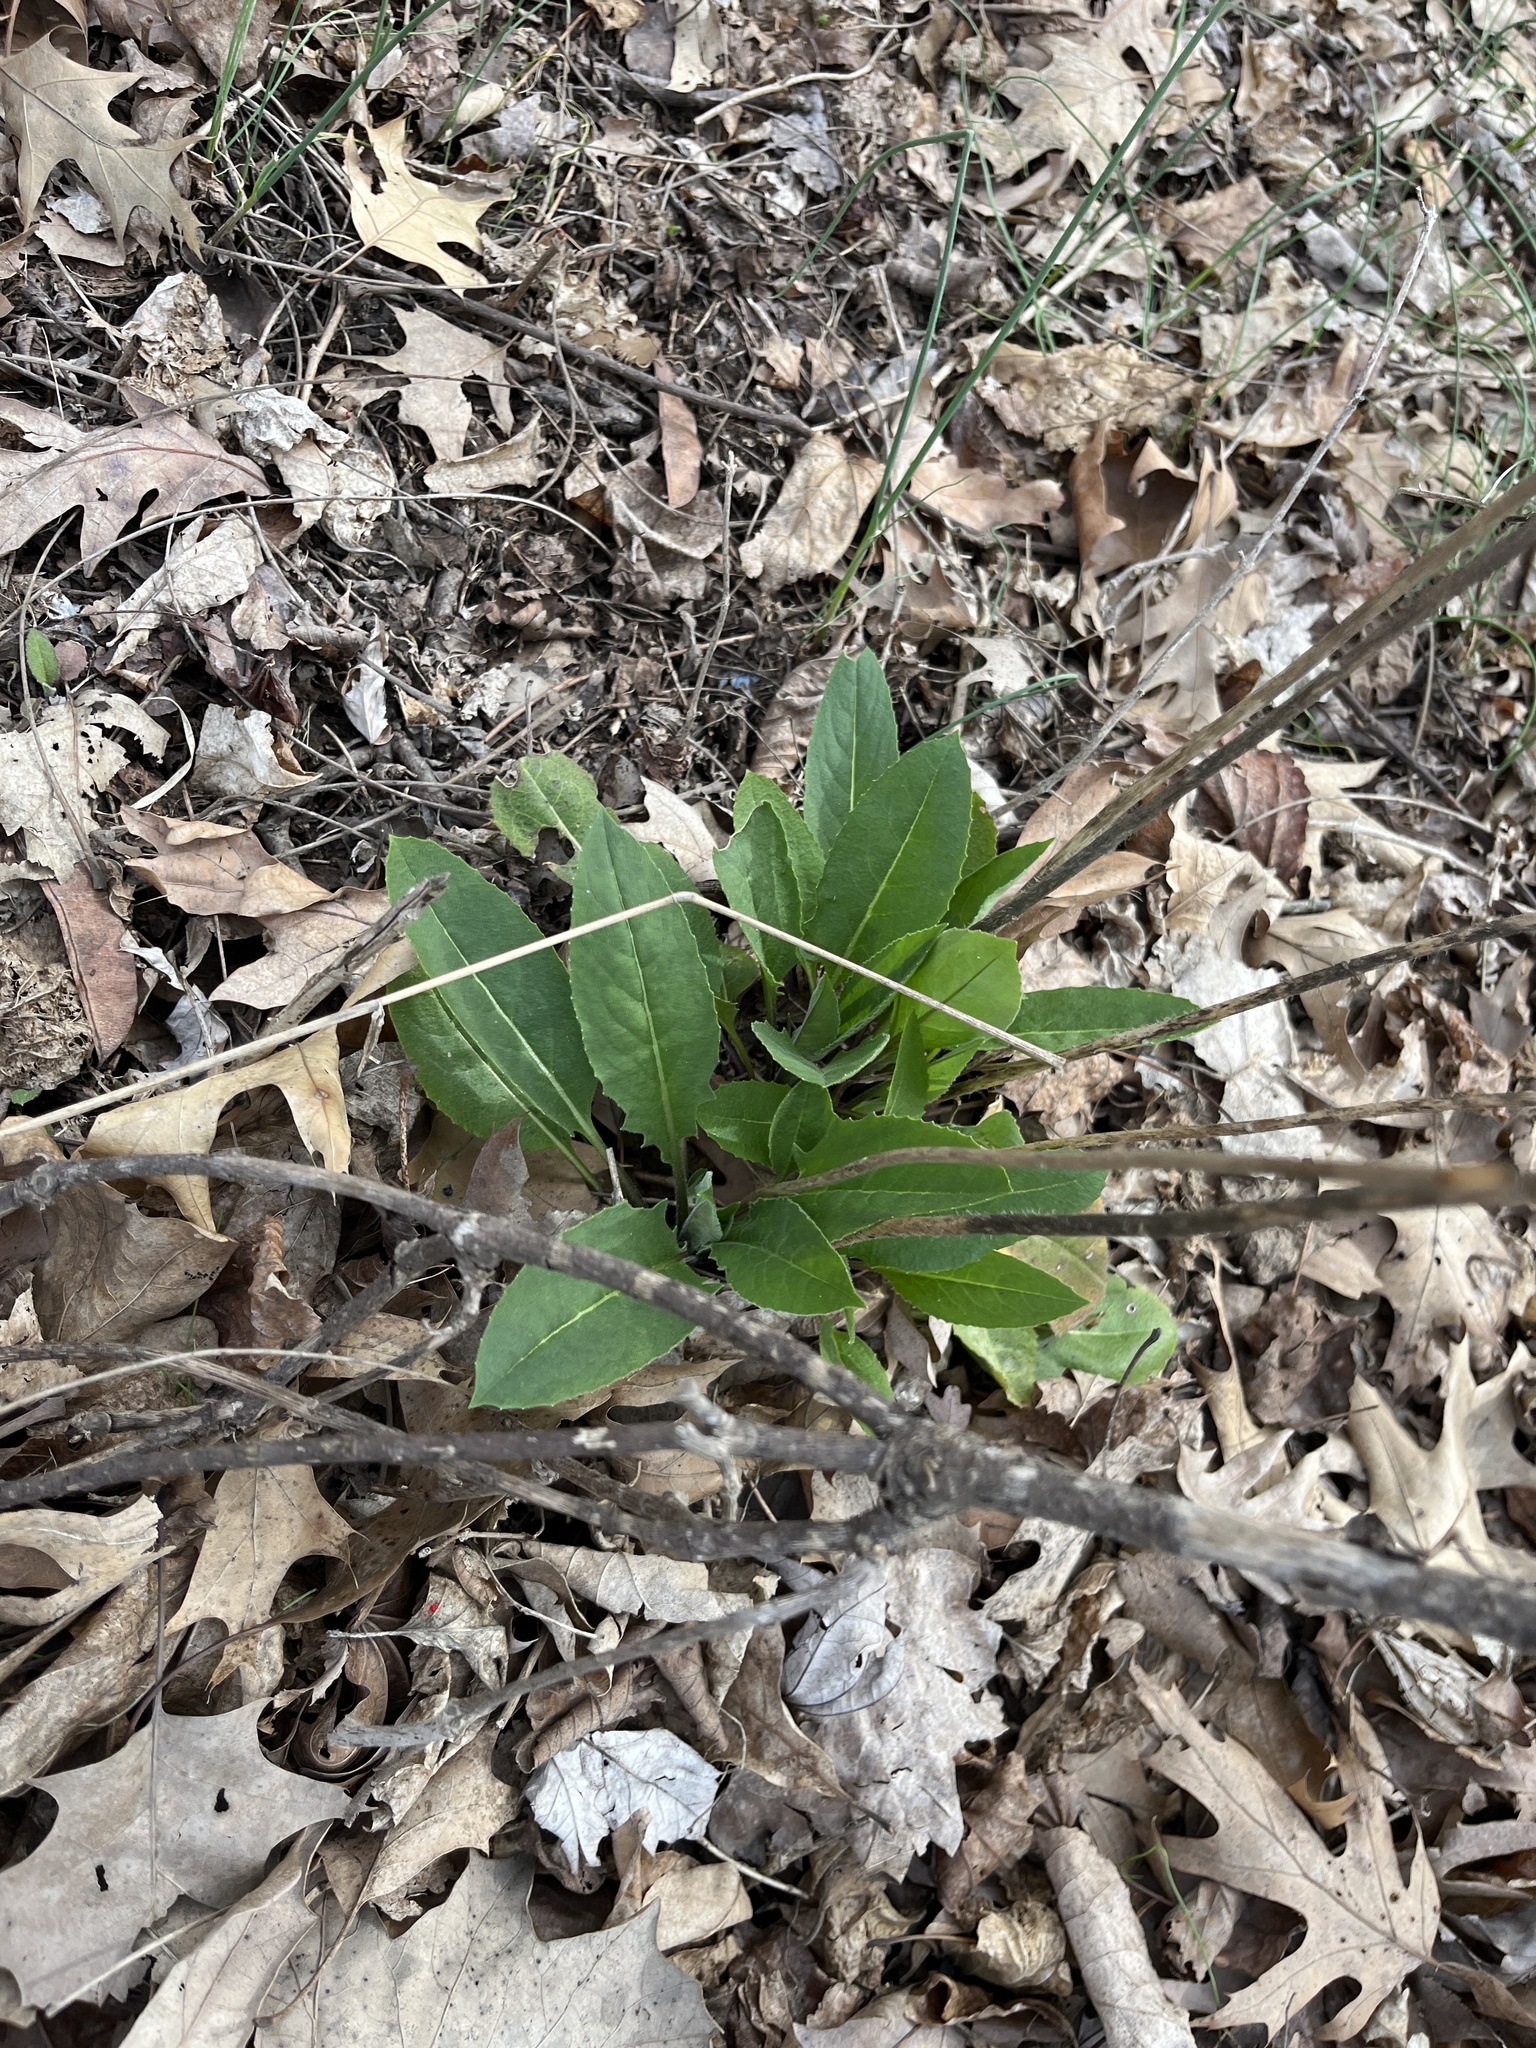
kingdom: Plantae
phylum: Tracheophyta
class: Magnoliopsida
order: Brassicales
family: Brassicaceae
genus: Hesperis
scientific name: Hesperis matronalis
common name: Dame's-violet
